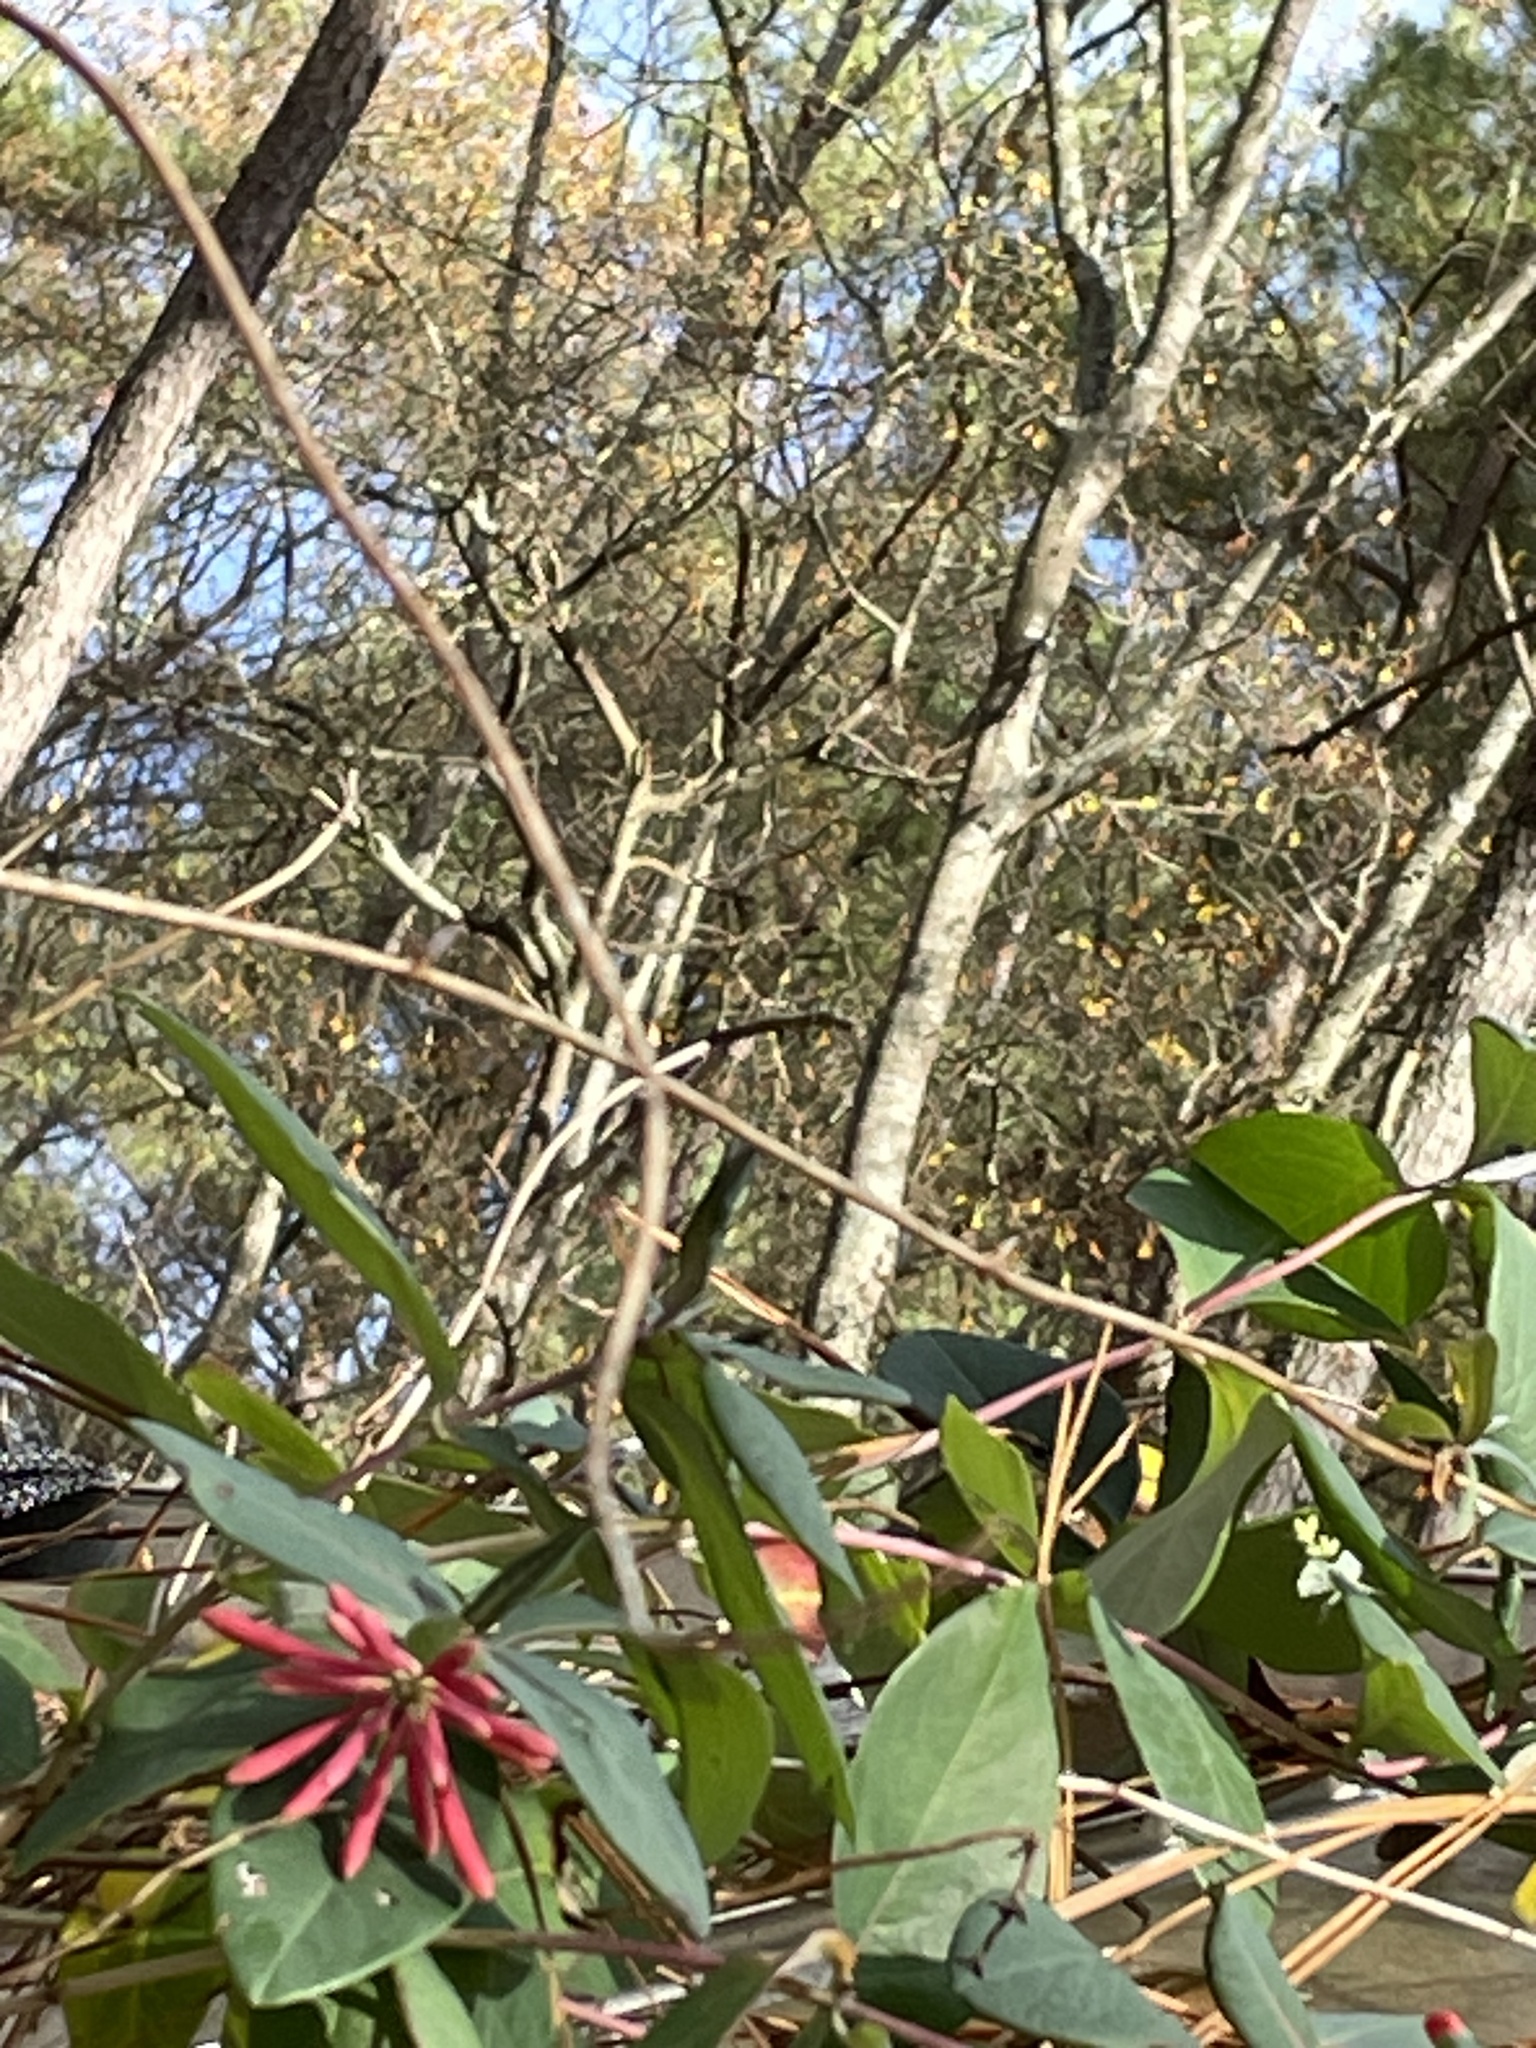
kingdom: Plantae
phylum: Tracheophyta
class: Magnoliopsida
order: Dipsacales
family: Caprifoliaceae
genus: Lonicera
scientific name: Lonicera sempervirens
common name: Coral honeysuckle
